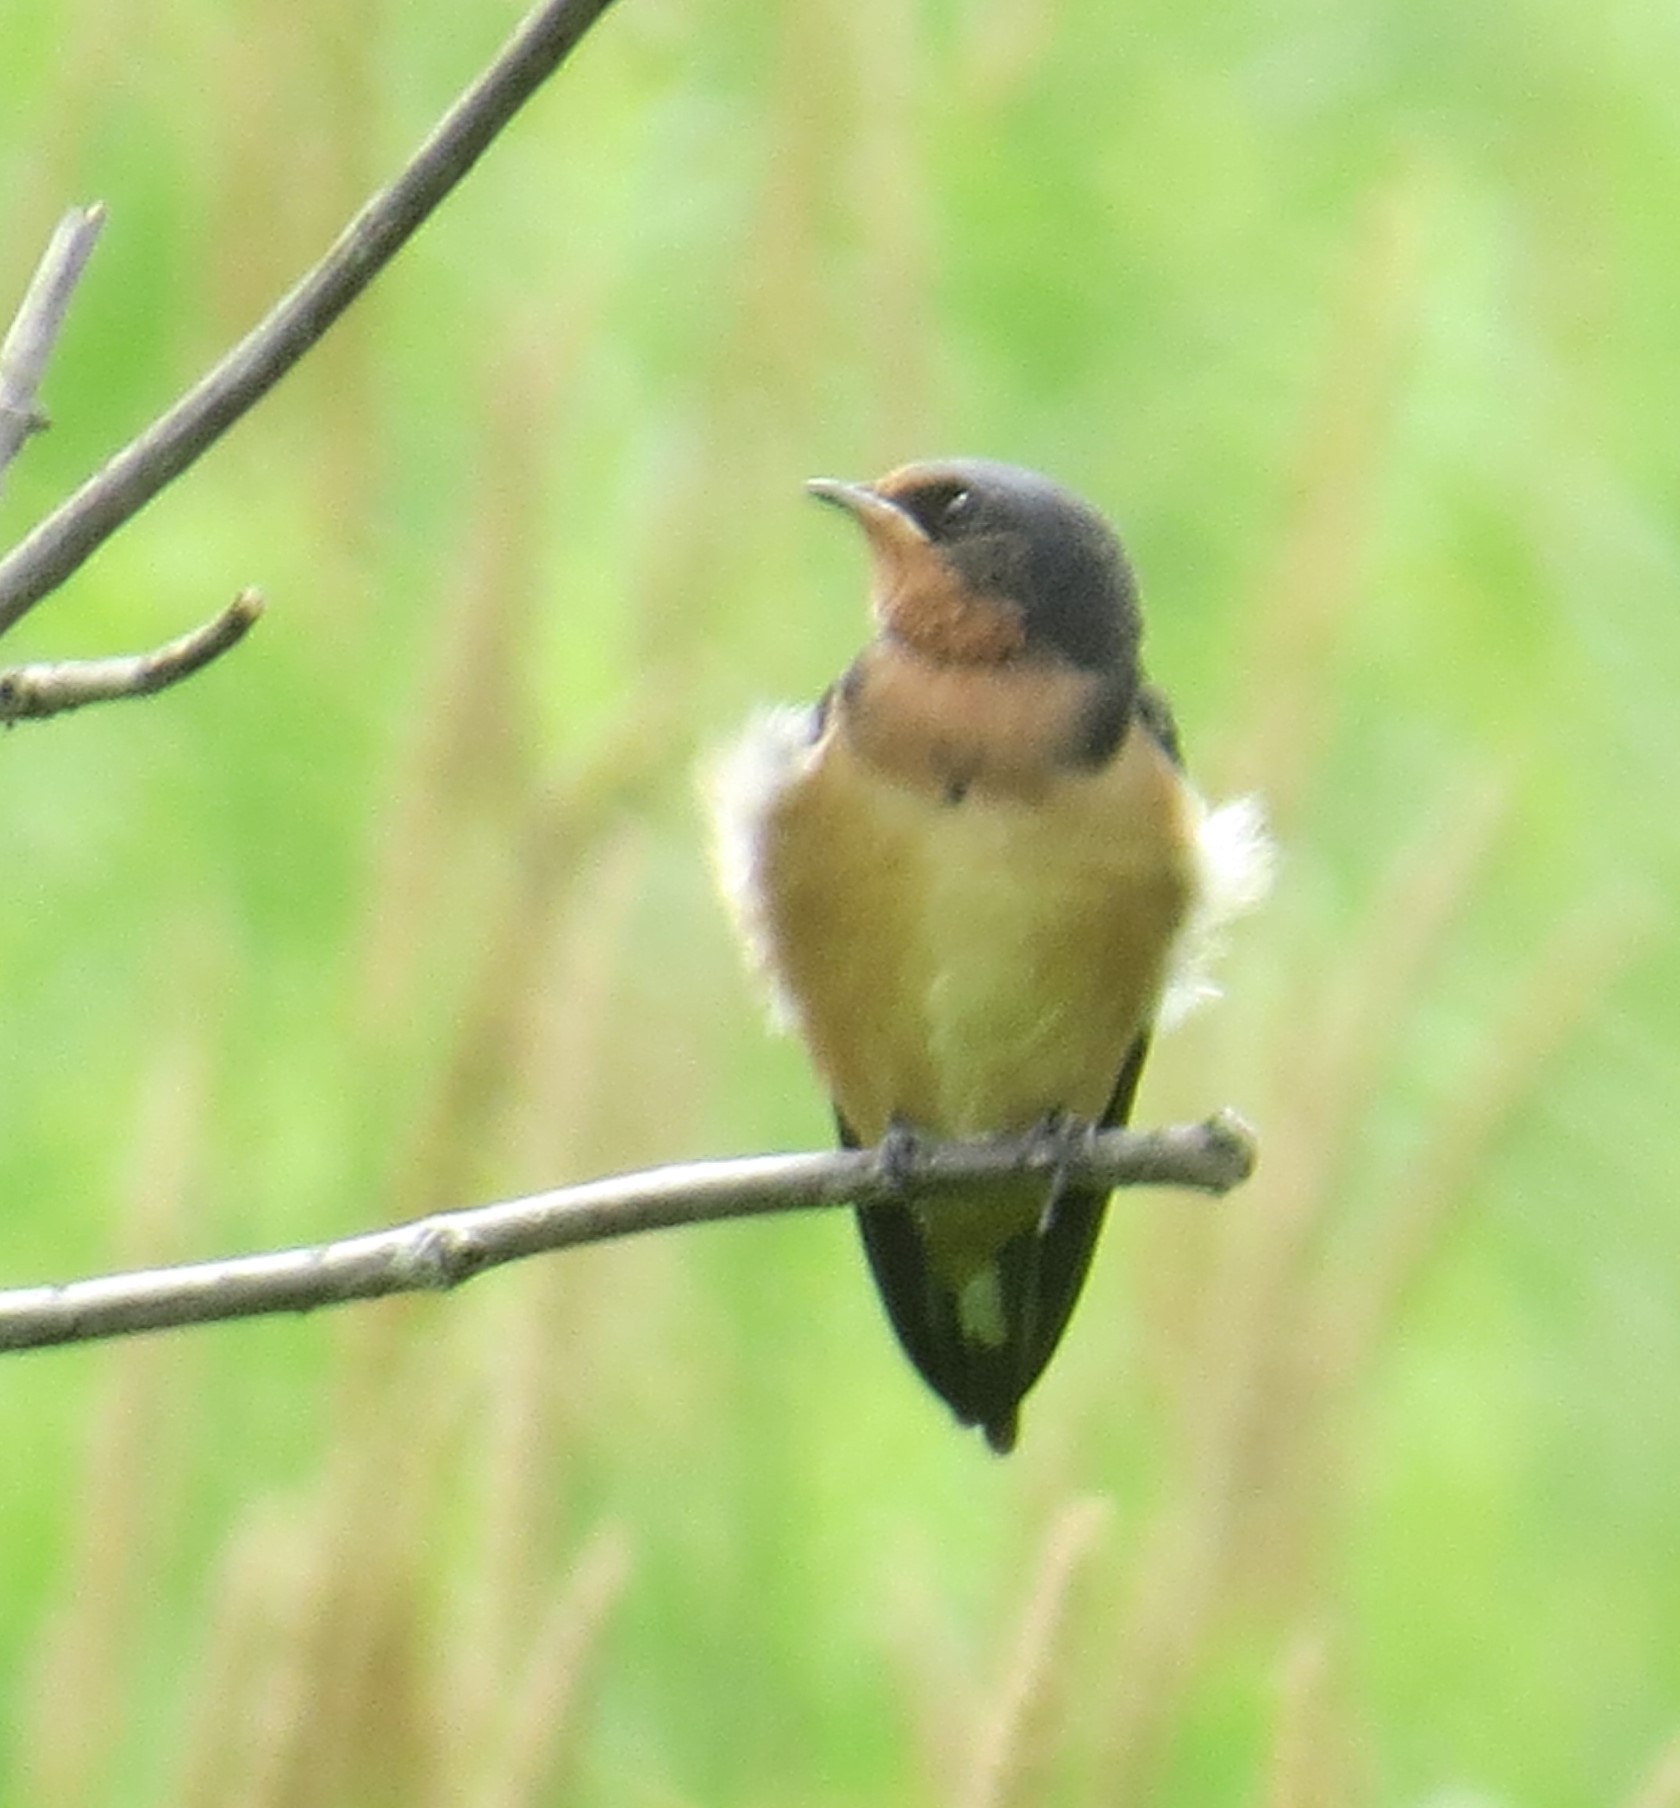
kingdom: Animalia
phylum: Chordata
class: Aves
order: Passeriformes
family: Hirundinidae
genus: Hirundo
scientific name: Hirundo rustica
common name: Barn swallow
